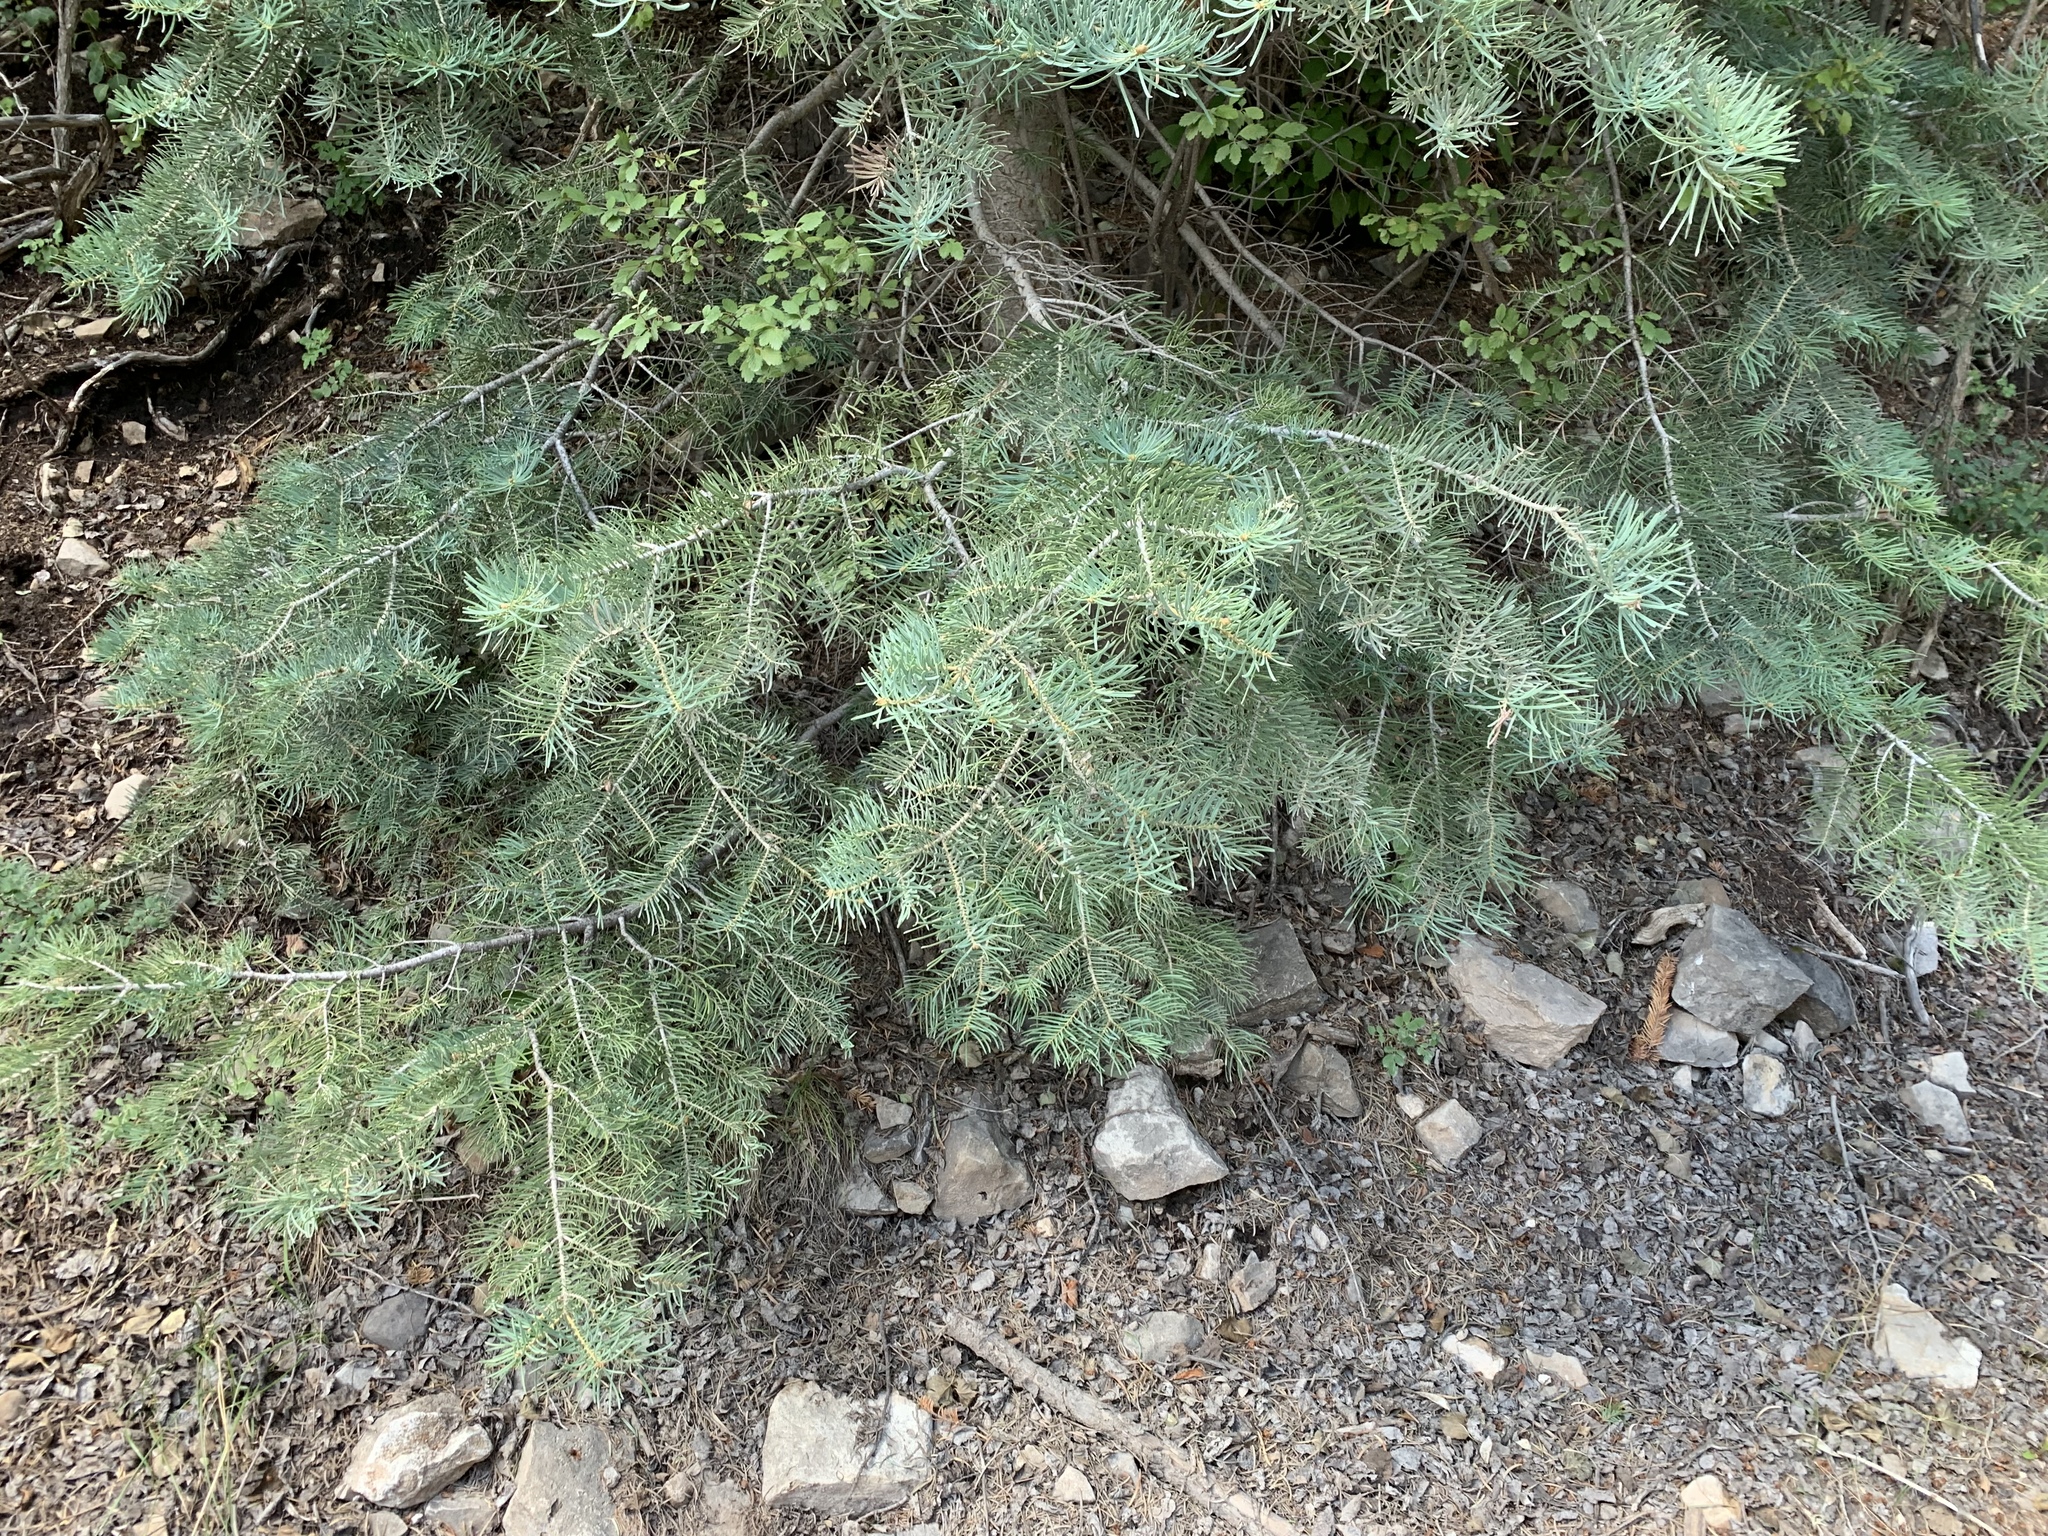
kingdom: Plantae
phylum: Tracheophyta
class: Pinopsida
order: Pinales
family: Pinaceae
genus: Abies
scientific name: Abies concolor
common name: Colorado fir
